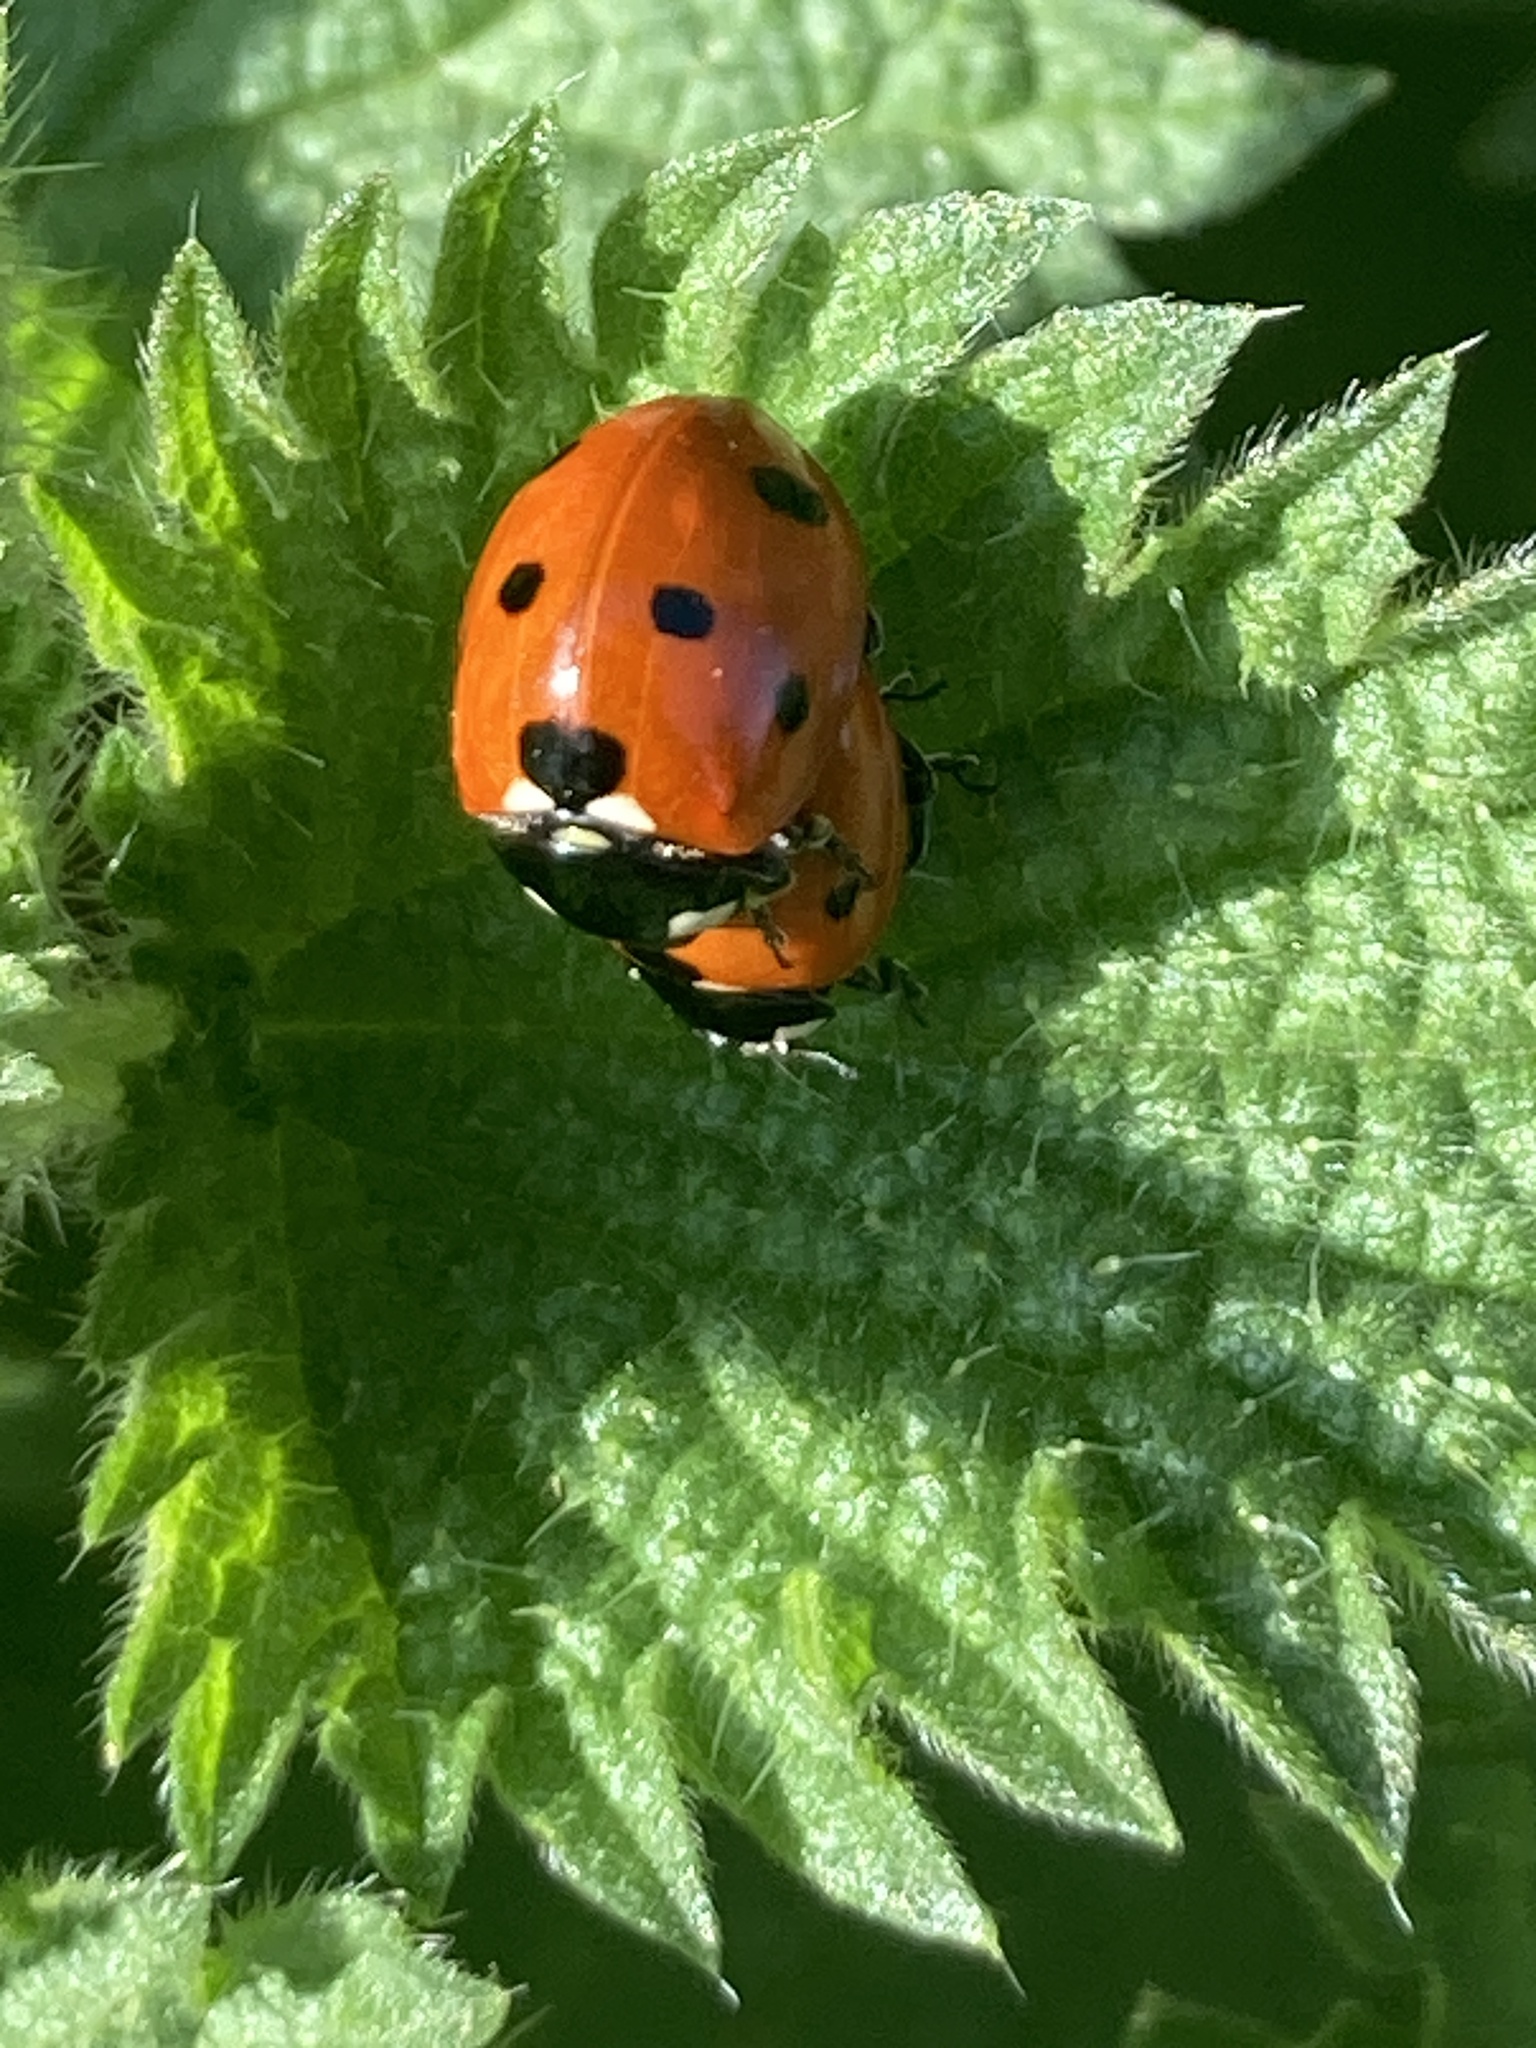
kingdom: Animalia
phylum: Arthropoda
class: Insecta
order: Coleoptera
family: Coccinellidae
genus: Coccinella
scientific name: Coccinella septempunctata
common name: Sevenspotted lady beetle
